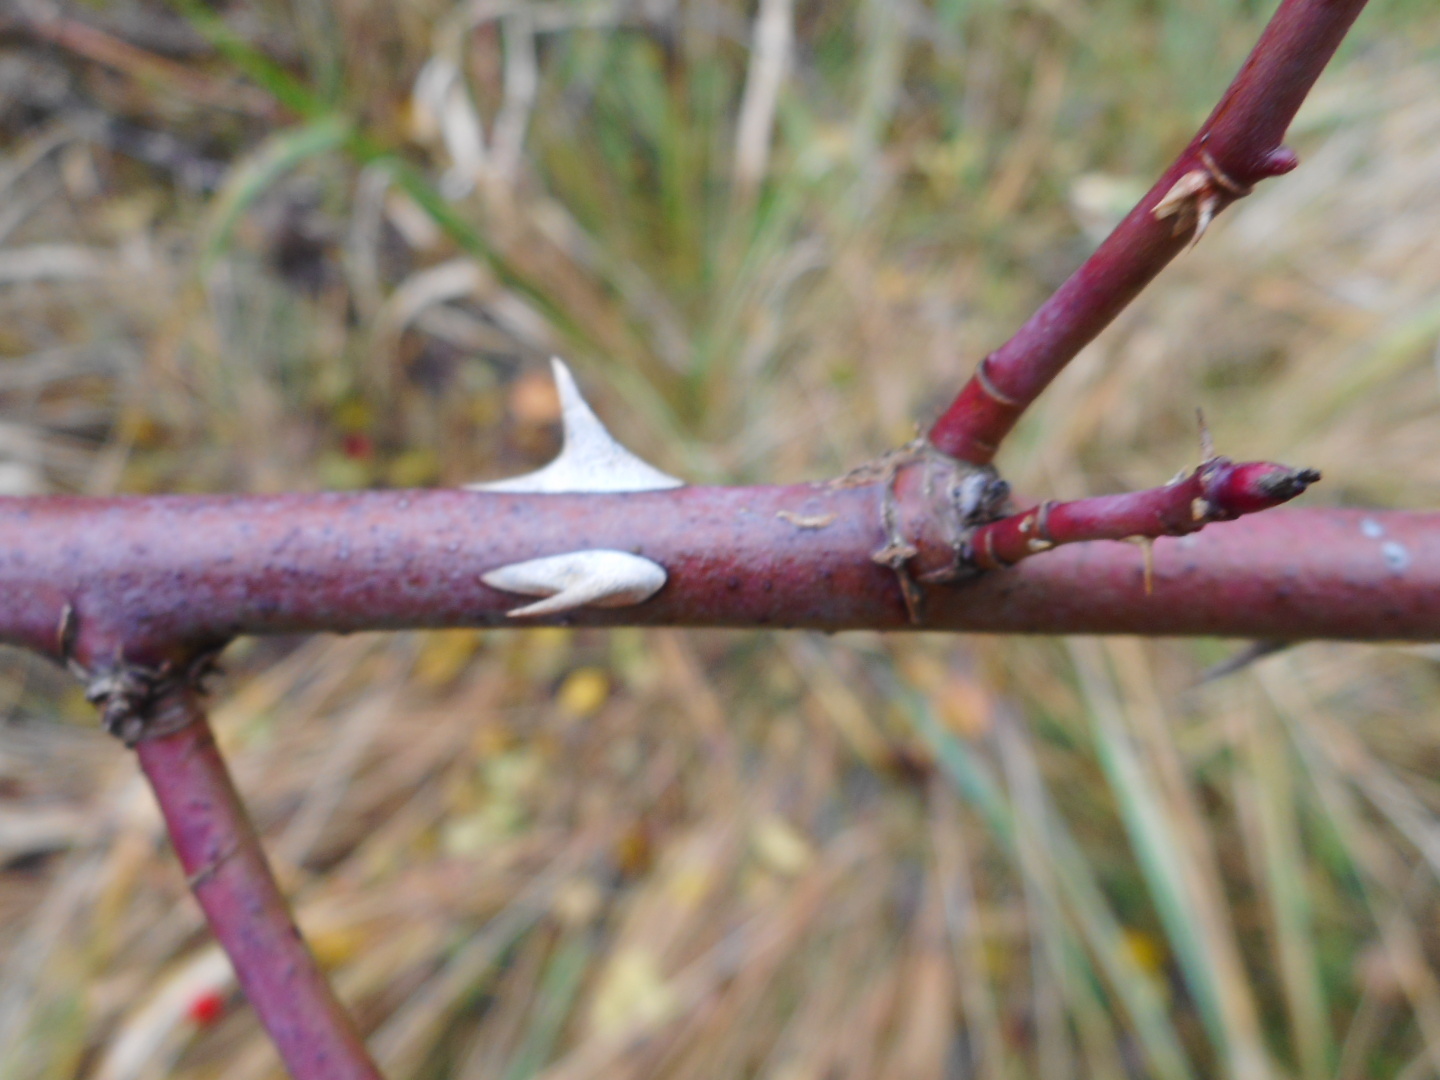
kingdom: Plantae
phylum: Tracheophyta
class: Magnoliopsida
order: Rosales
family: Rosaceae
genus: Rosa
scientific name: Rosa canina
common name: Dog rose
